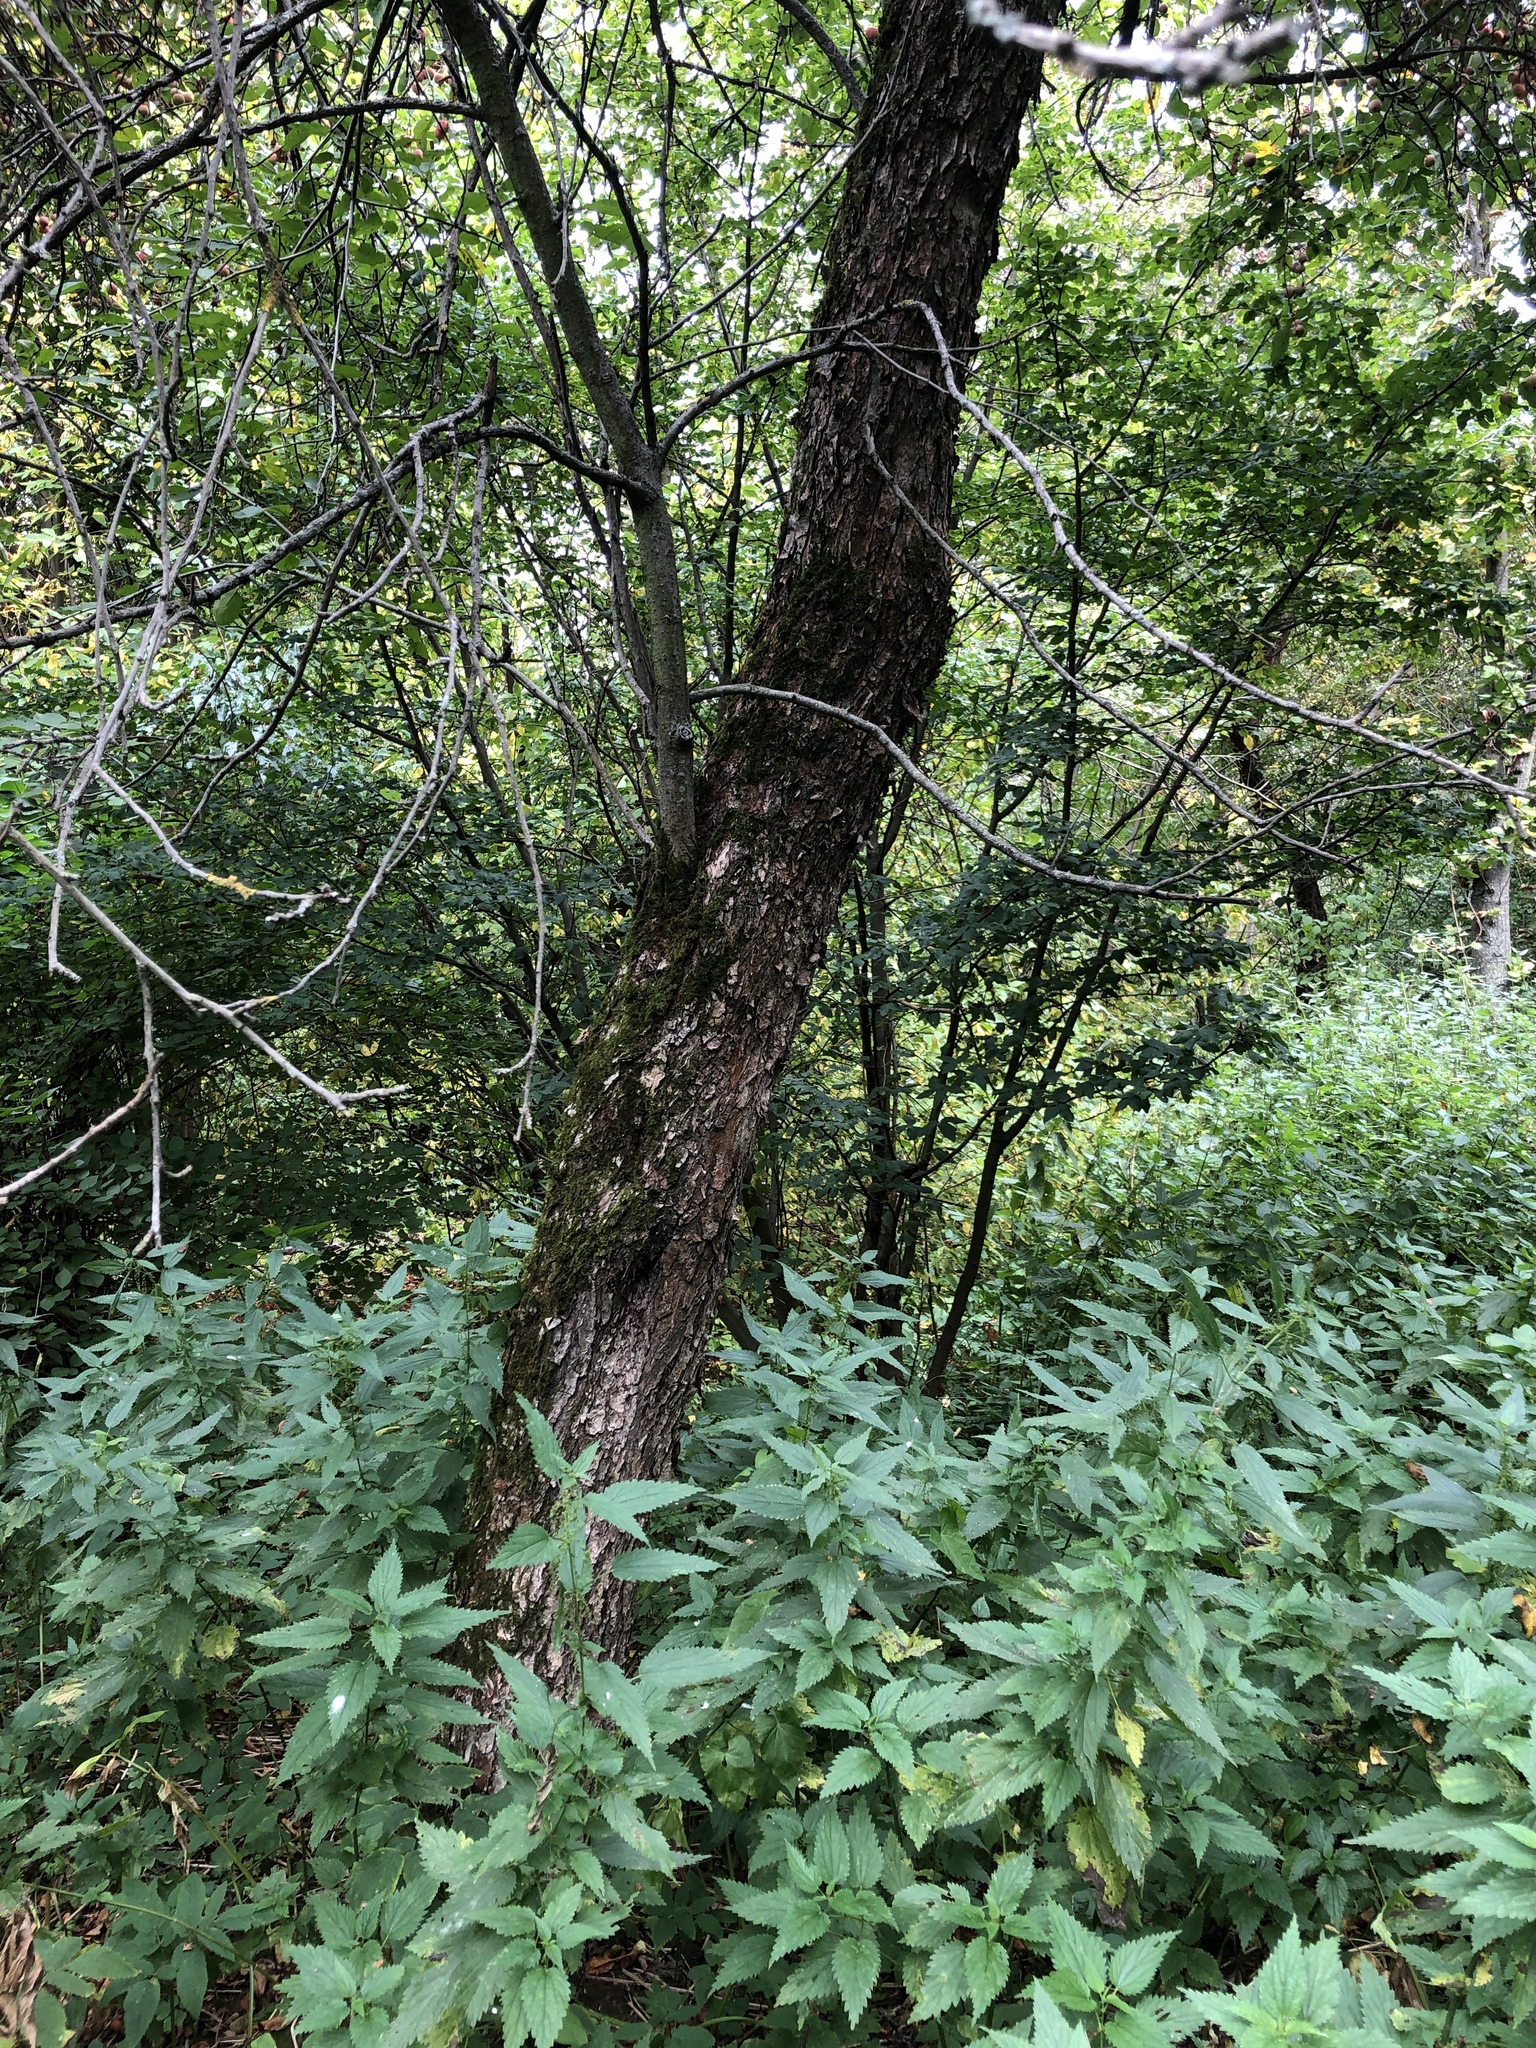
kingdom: Plantae
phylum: Tracheophyta
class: Magnoliopsida
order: Rosales
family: Rosaceae
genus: Malus
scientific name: Malus domestica
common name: Apple
